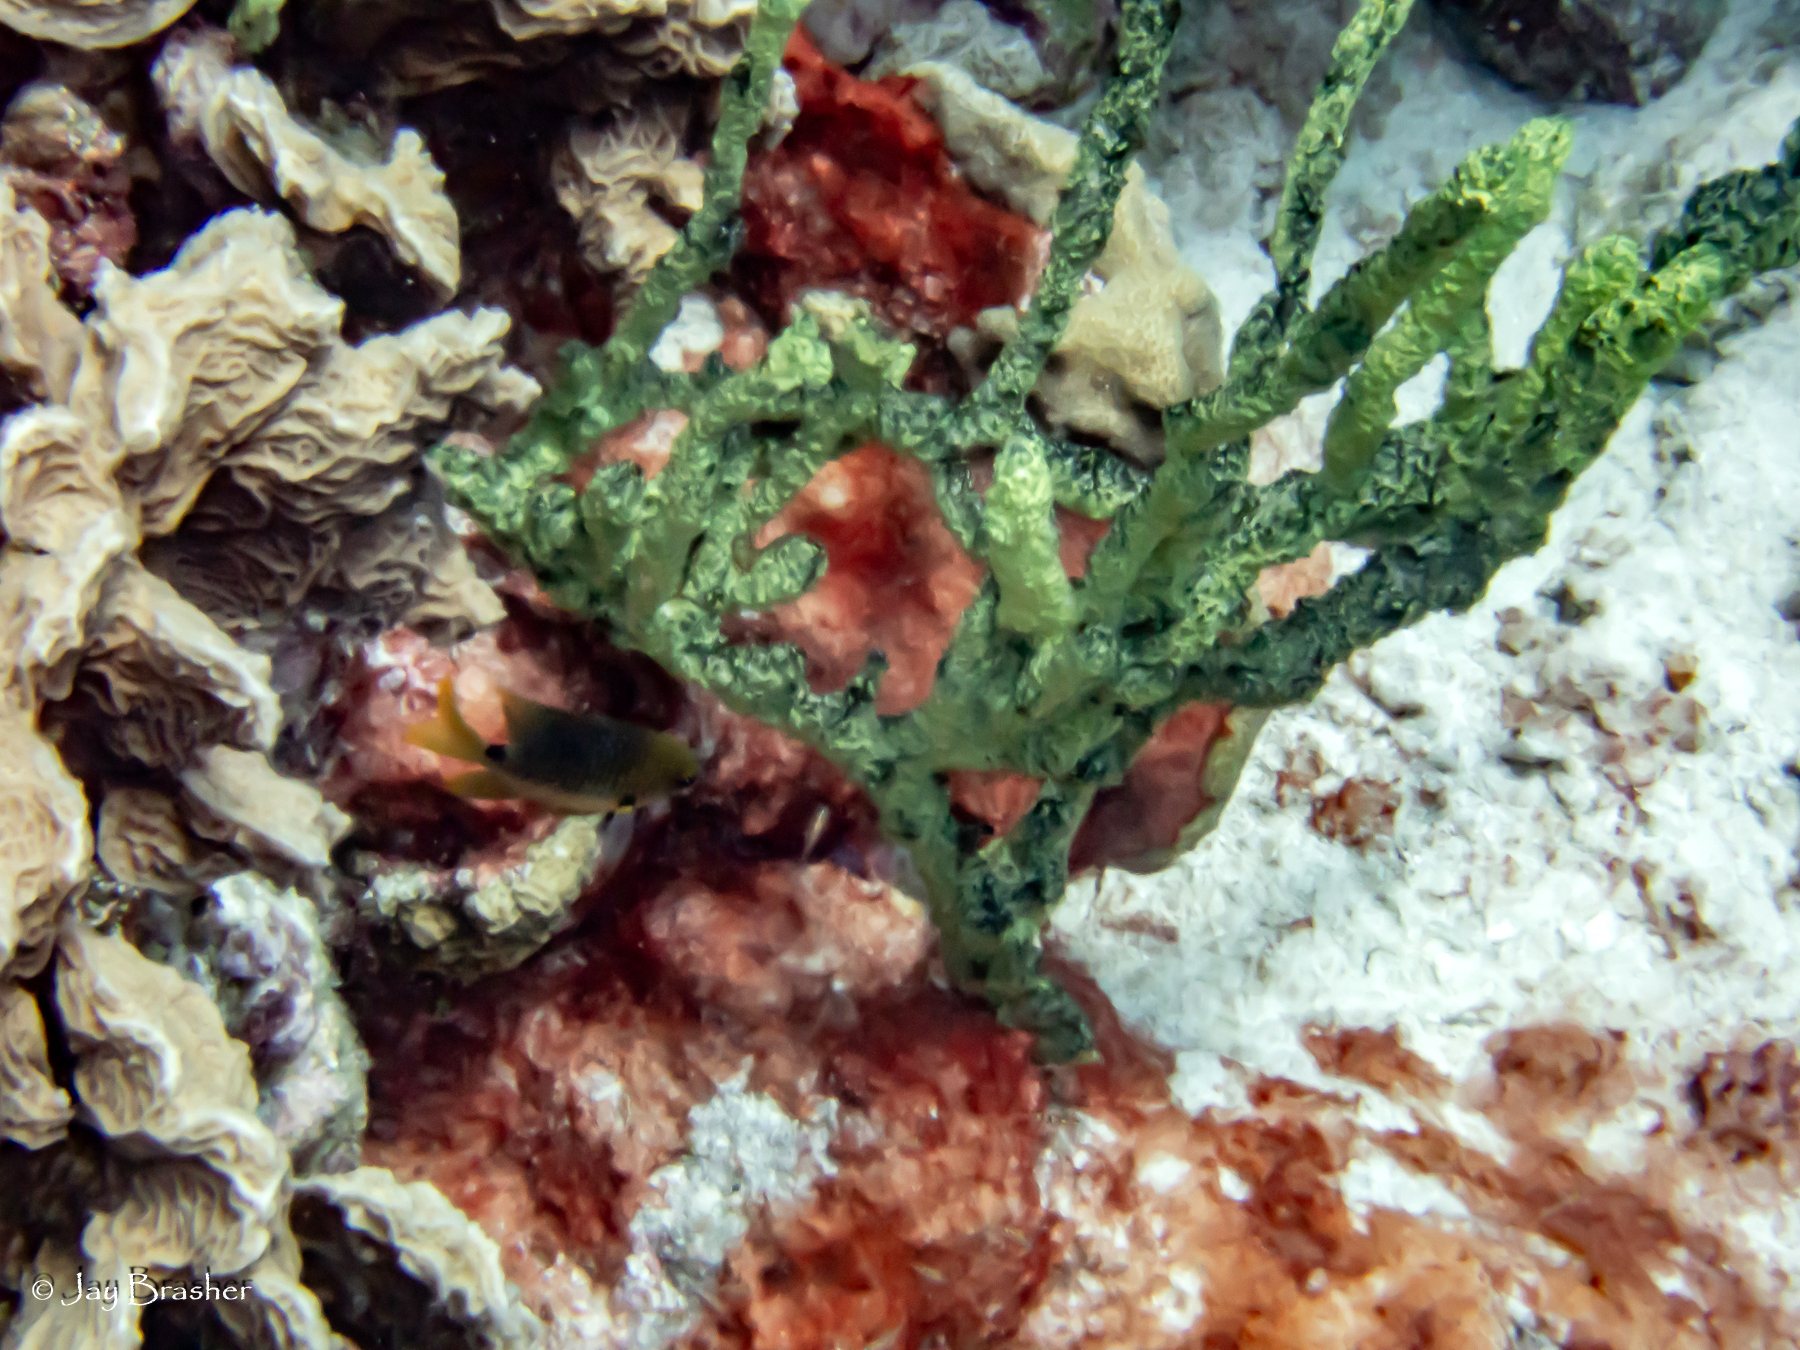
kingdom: Animalia
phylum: Porifera
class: Demospongiae
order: Poecilosclerida
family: Iotrochotidae
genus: Iotrochota
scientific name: Iotrochota birotulata
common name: Purple bleeding sponge
